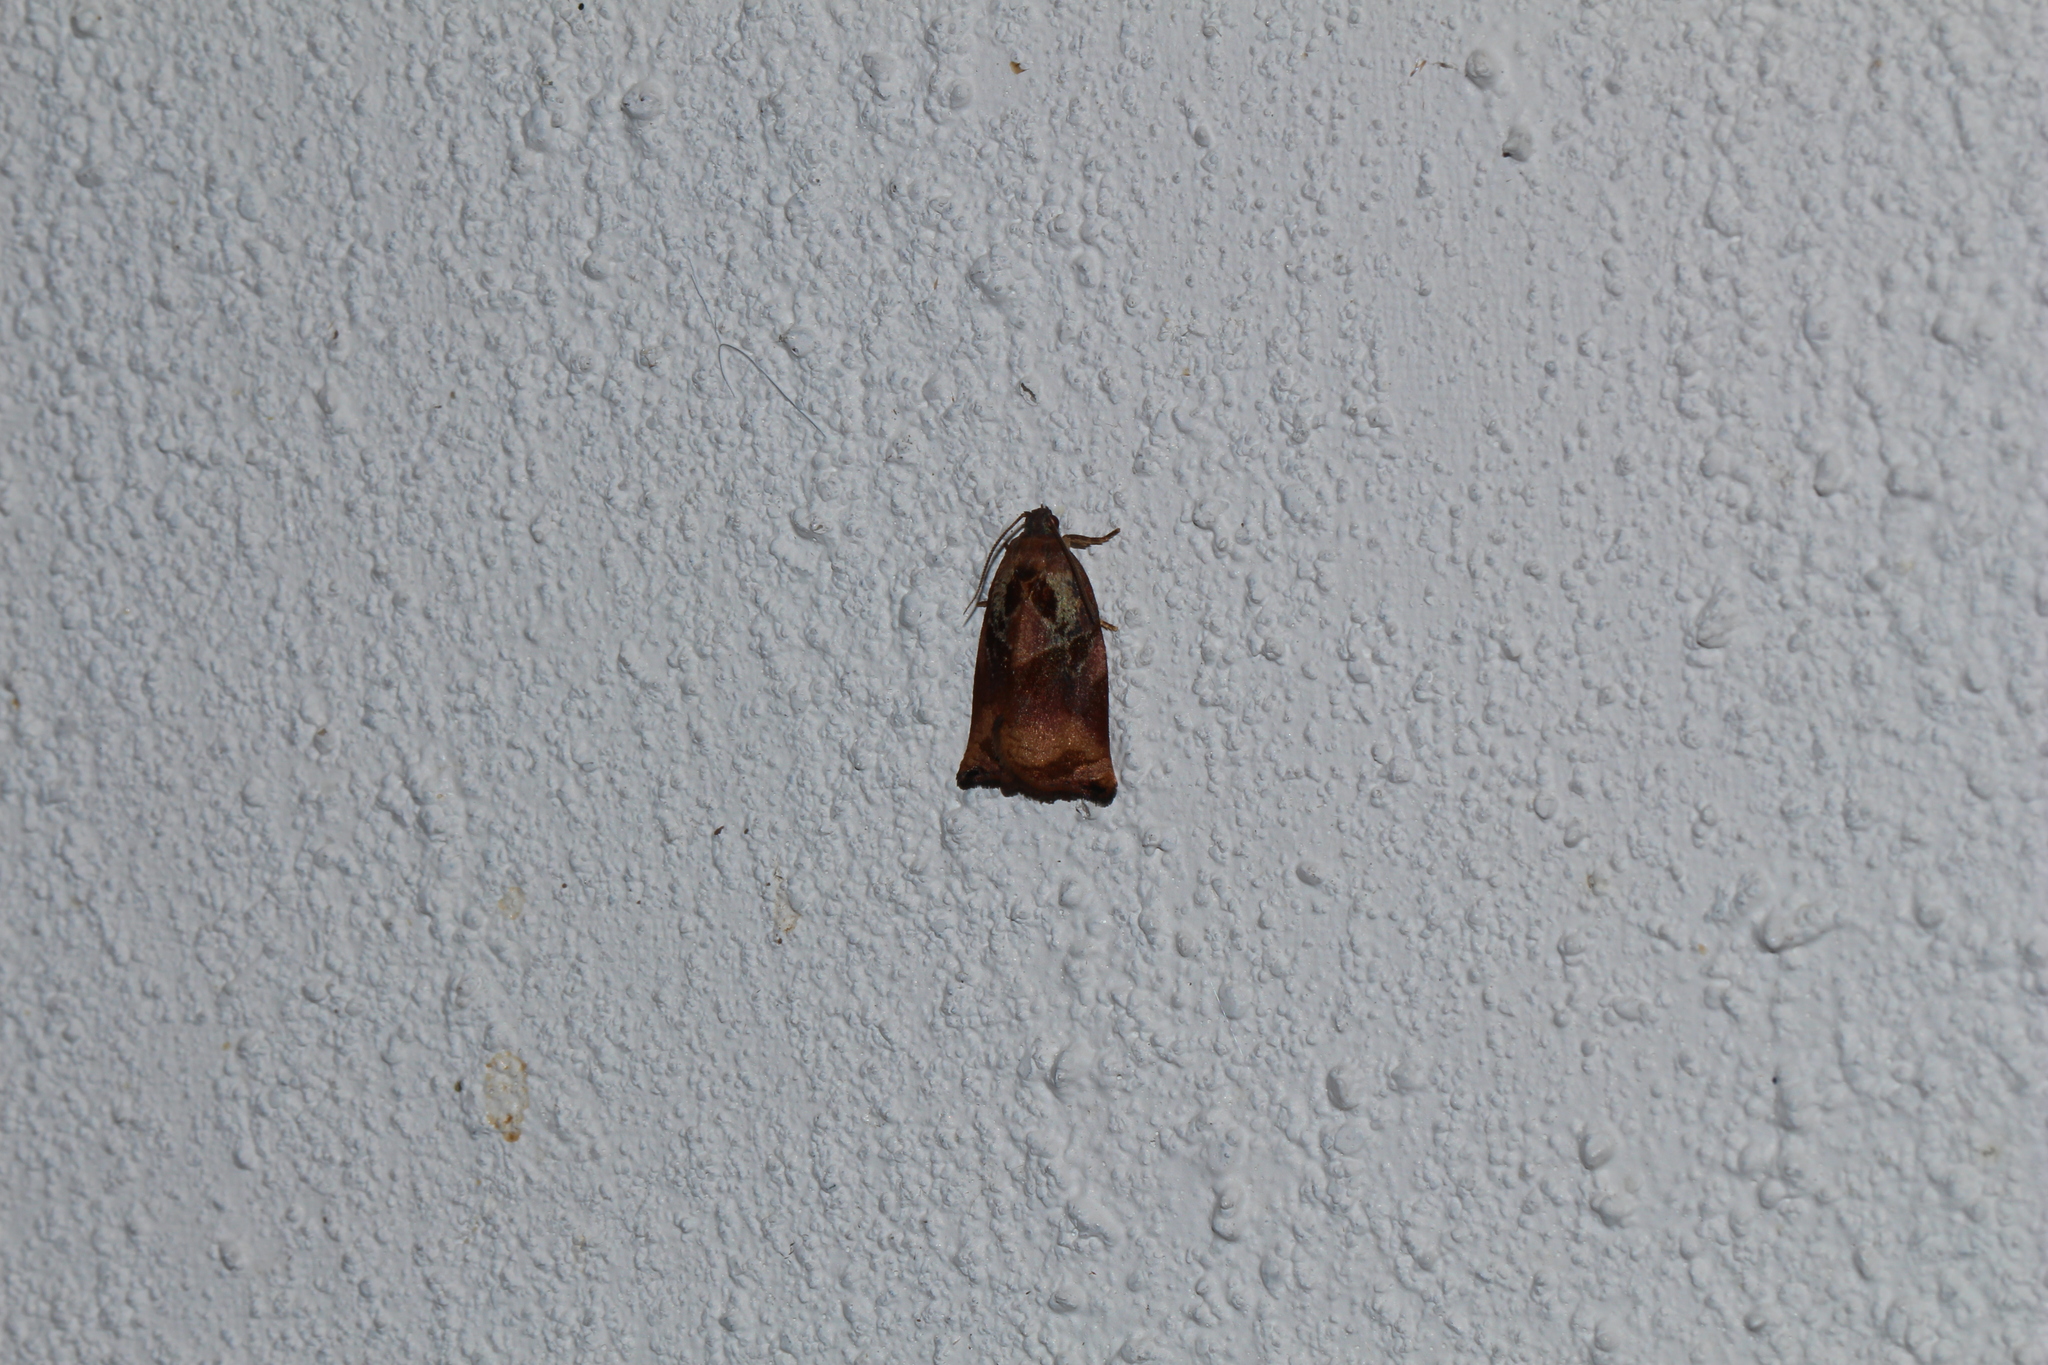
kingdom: Animalia
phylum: Arthropoda
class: Insecta
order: Lepidoptera
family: Tortricidae
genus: Archips
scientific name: Archips podana
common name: Large fruit-tree tortrix
